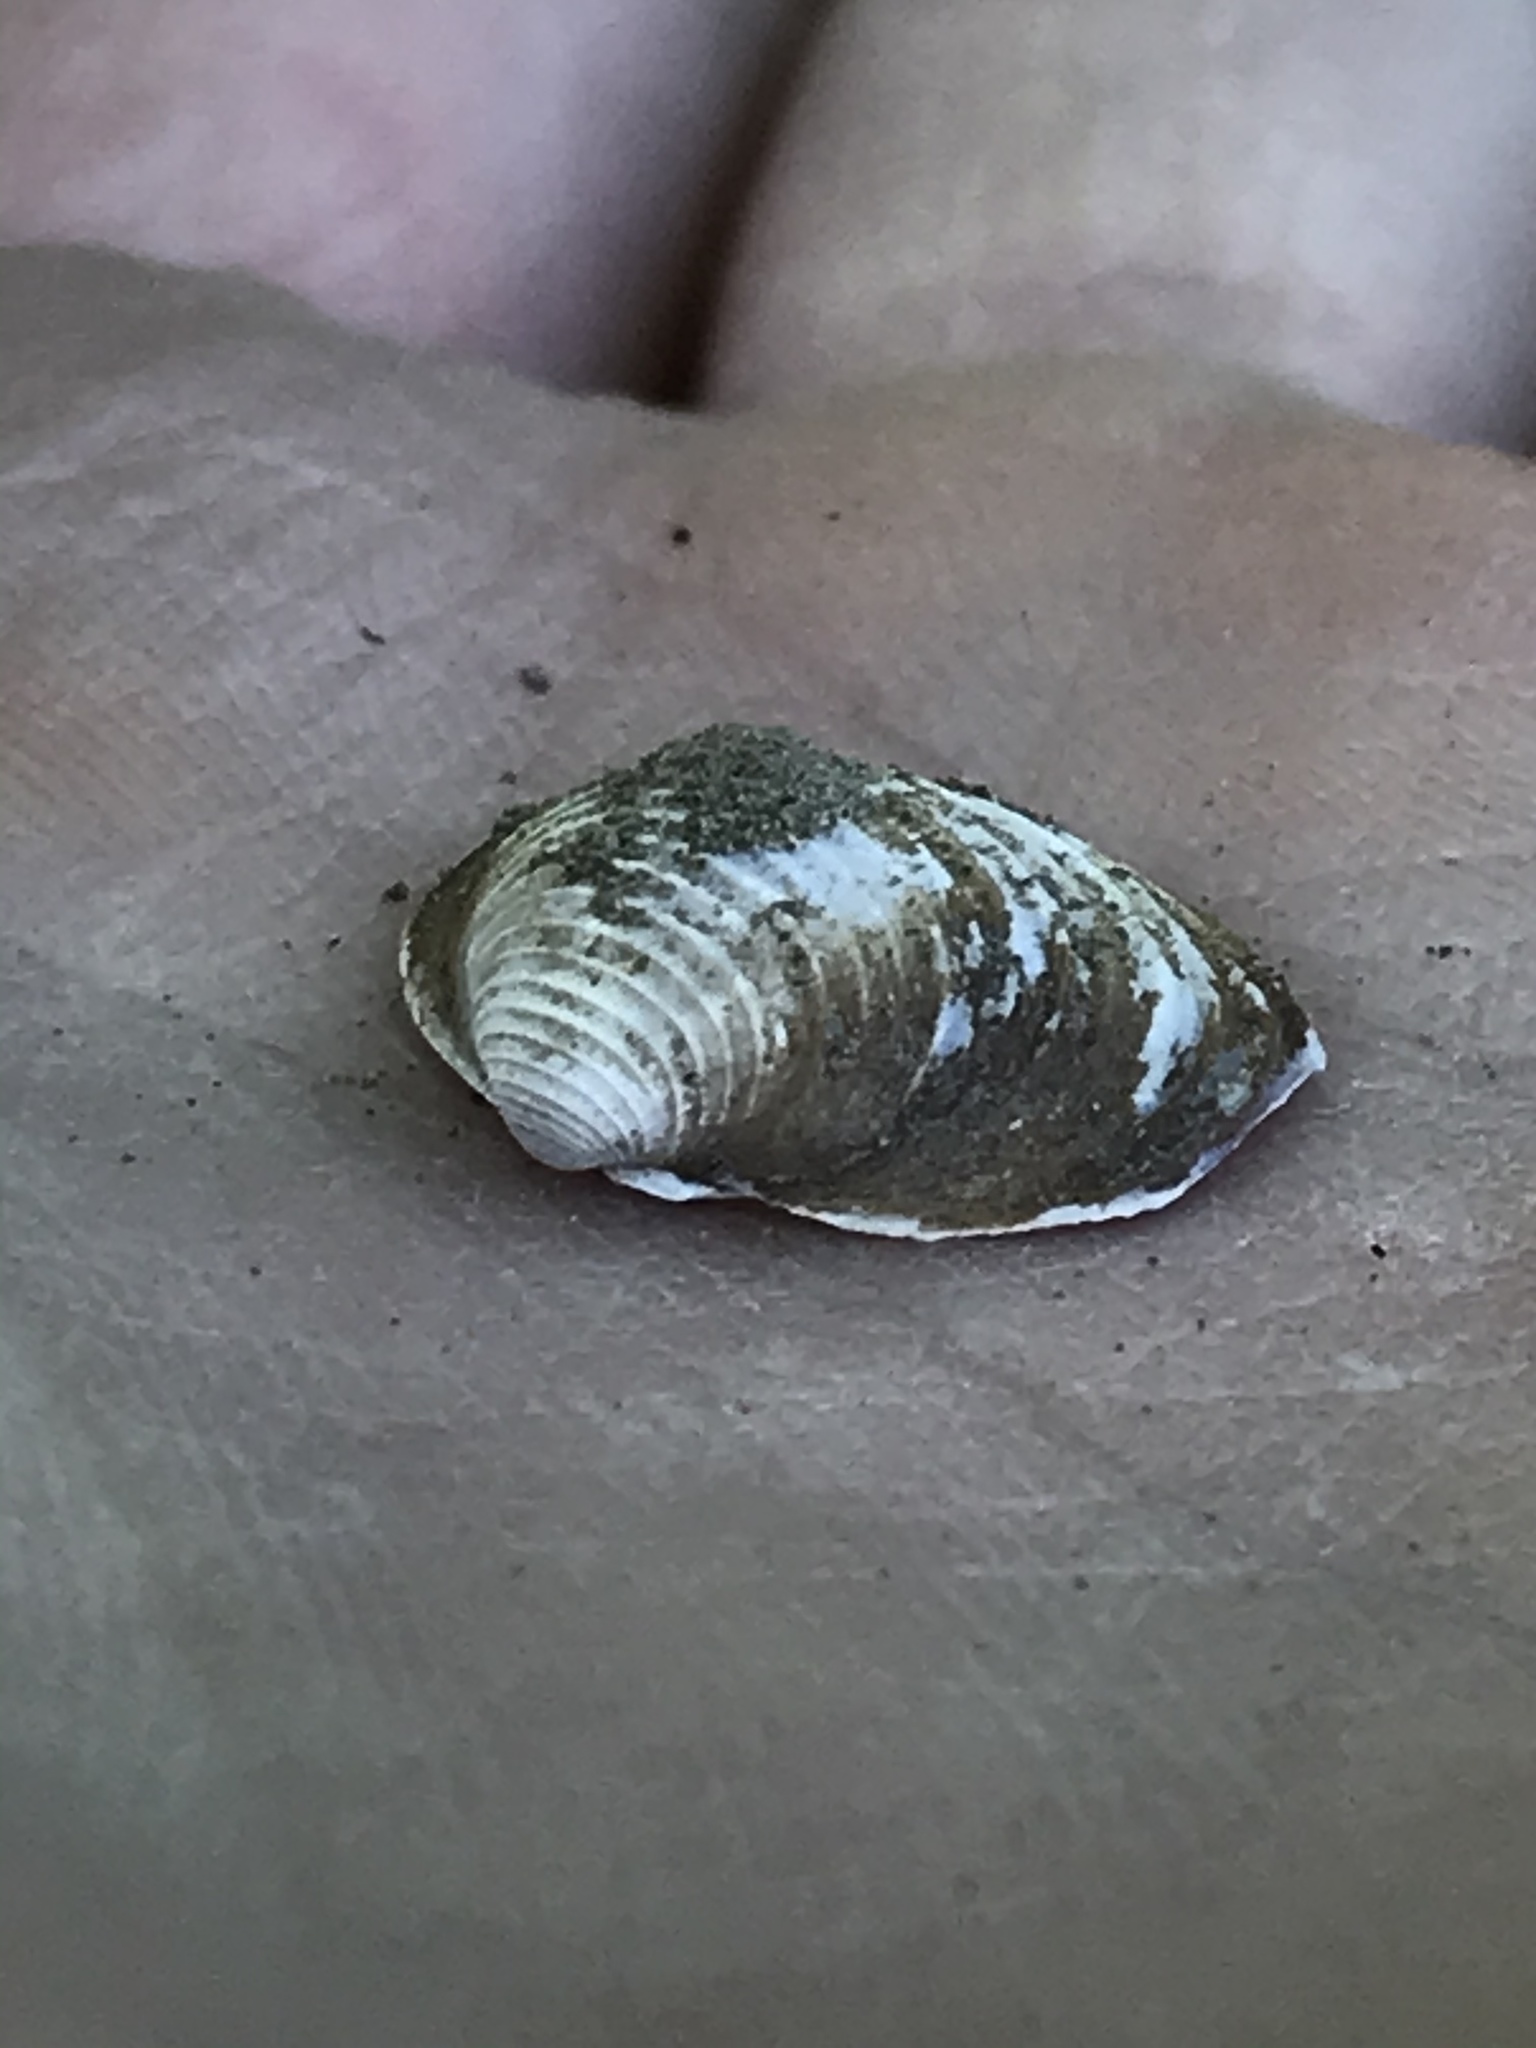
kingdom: Animalia
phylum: Mollusca
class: Bivalvia
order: Venerida
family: Cyrenidae
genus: Corbicula
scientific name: Corbicula fluminea
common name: Asian clam
